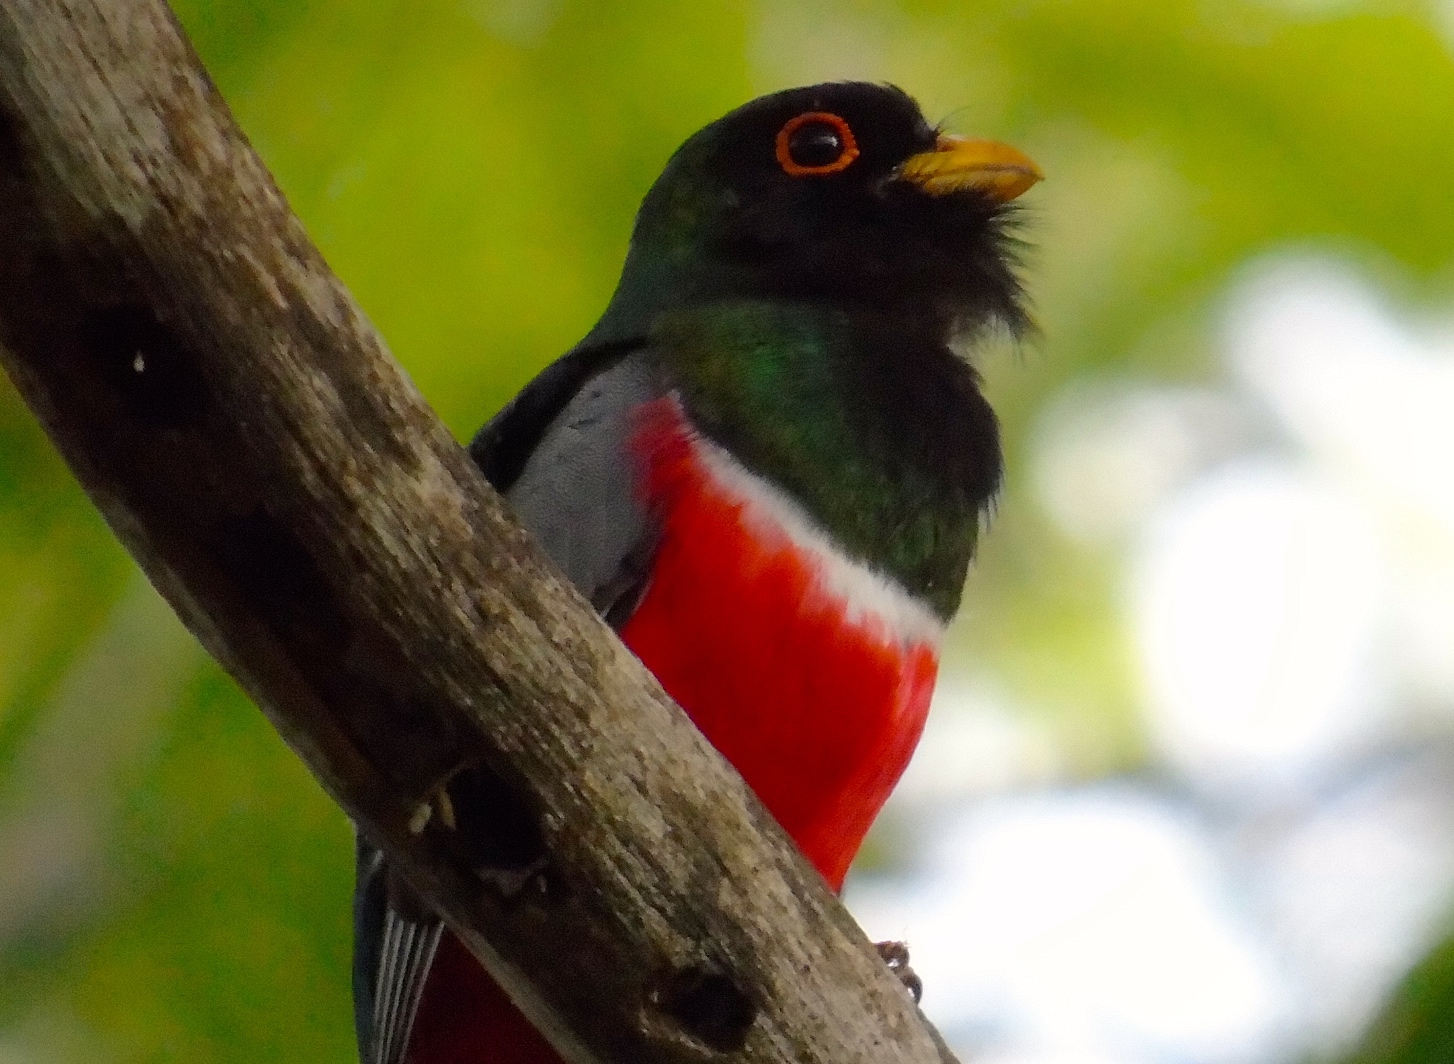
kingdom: Animalia
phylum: Chordata
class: Aves
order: Trogoniformes
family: Trogonidae
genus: Trogon
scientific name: Trogon elegans
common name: Elegant trogon
